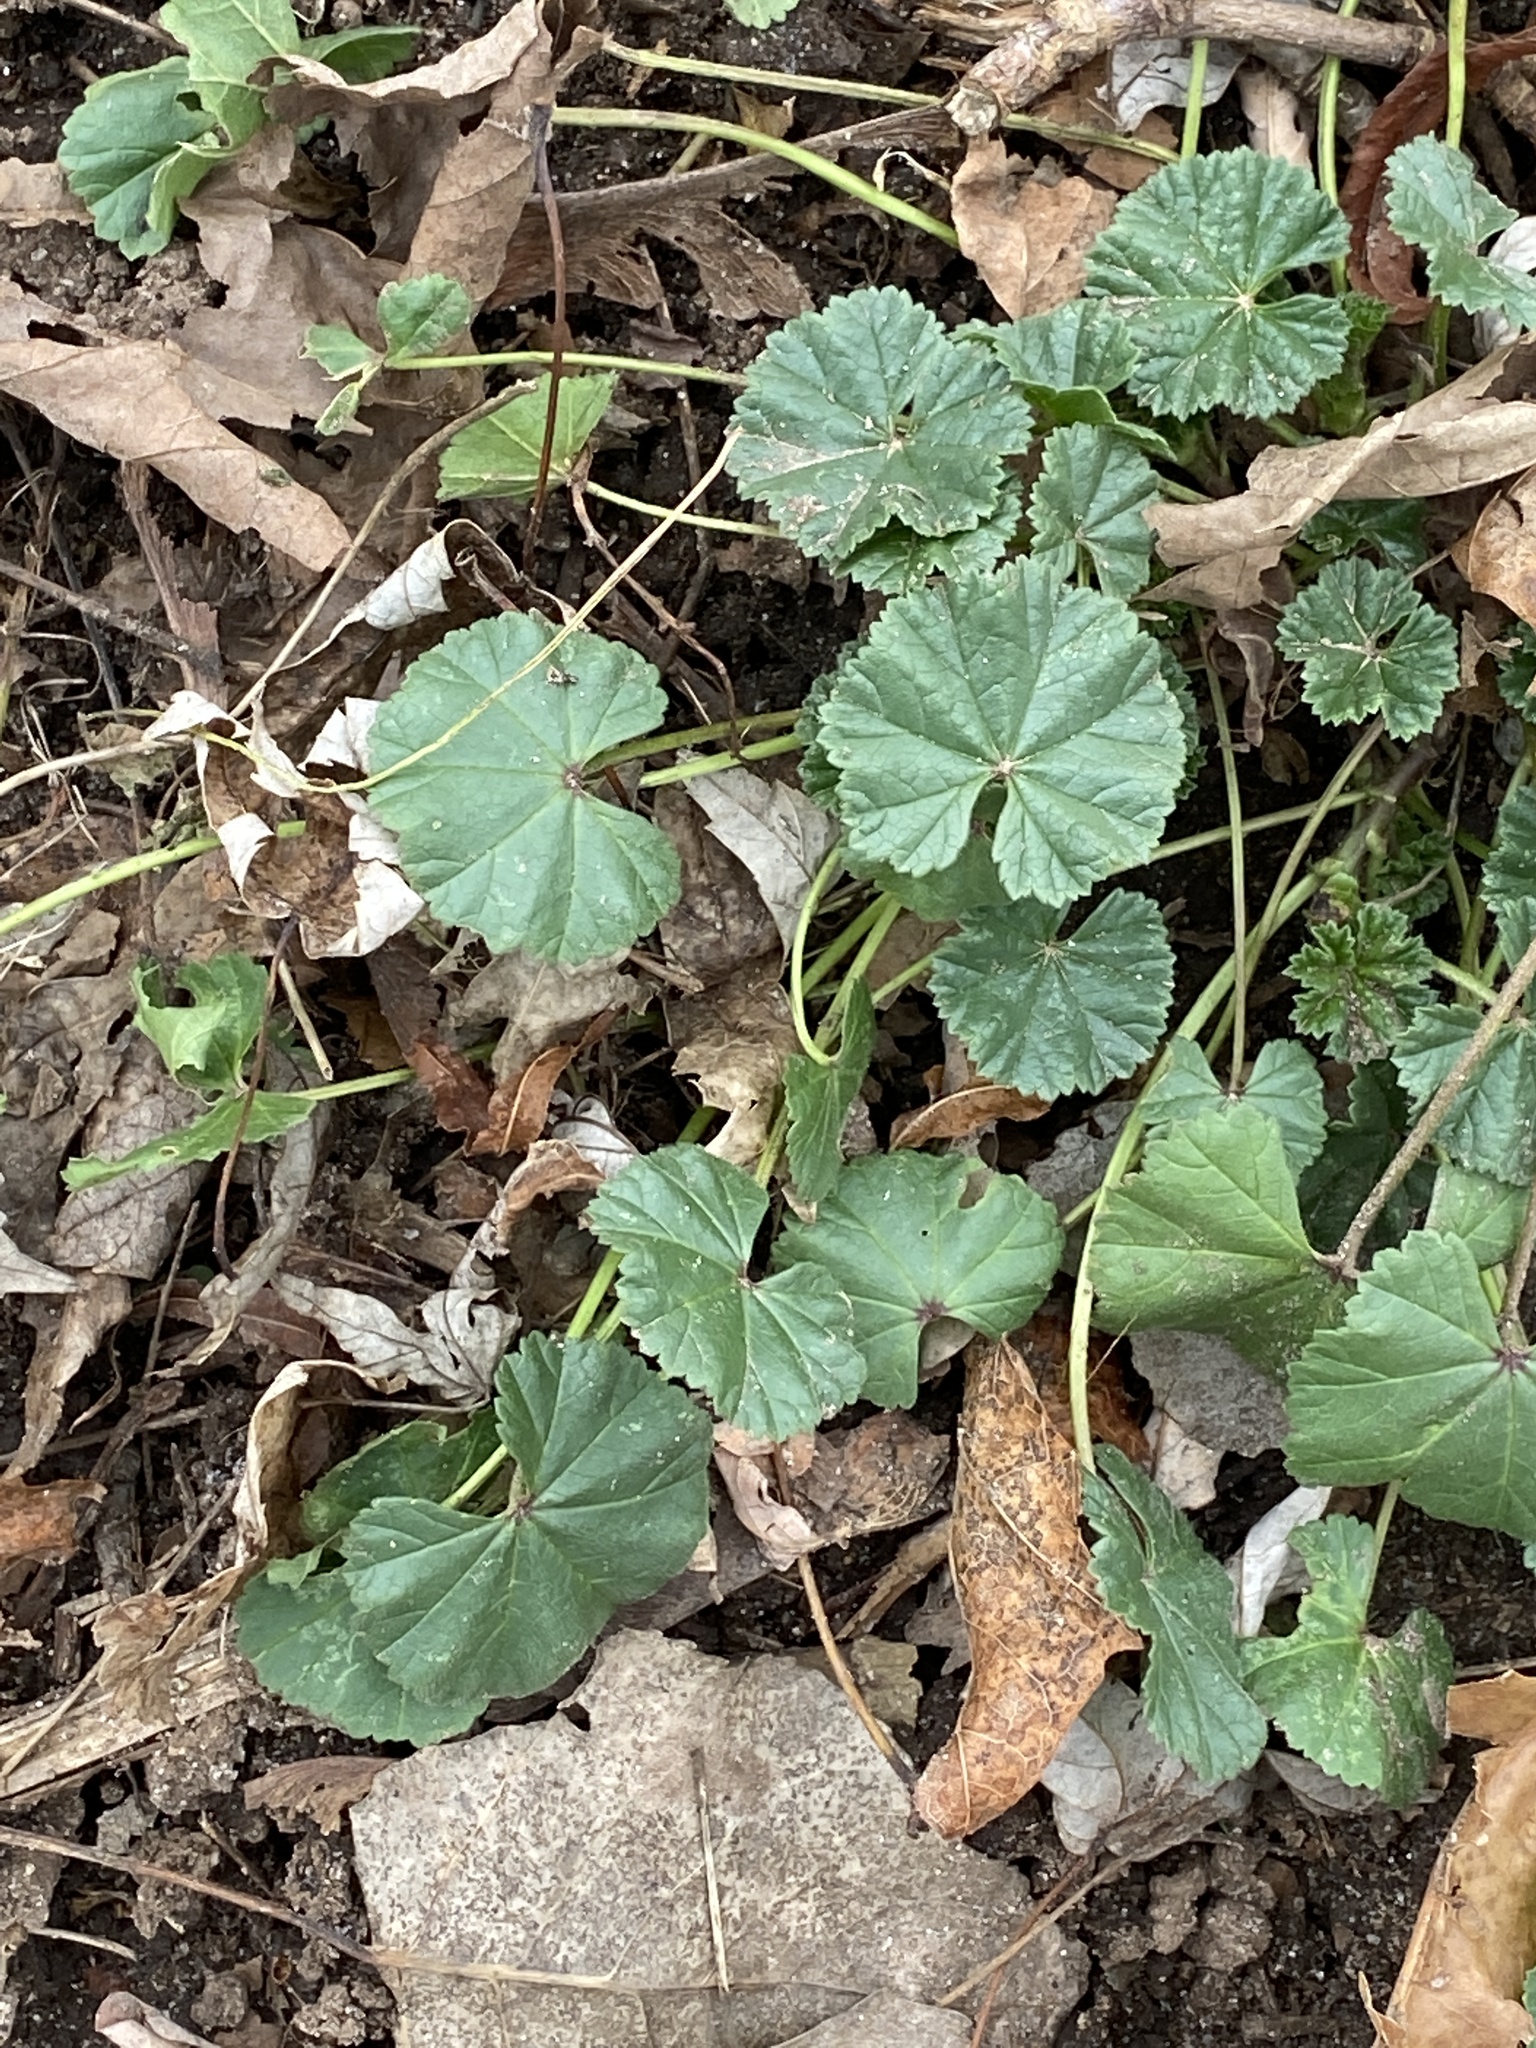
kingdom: Plantae
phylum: Tracheophyta
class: Magnoliopsida
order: Malvales
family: Malvaceae
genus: Malva
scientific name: Malva neglecta
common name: Common mallow
